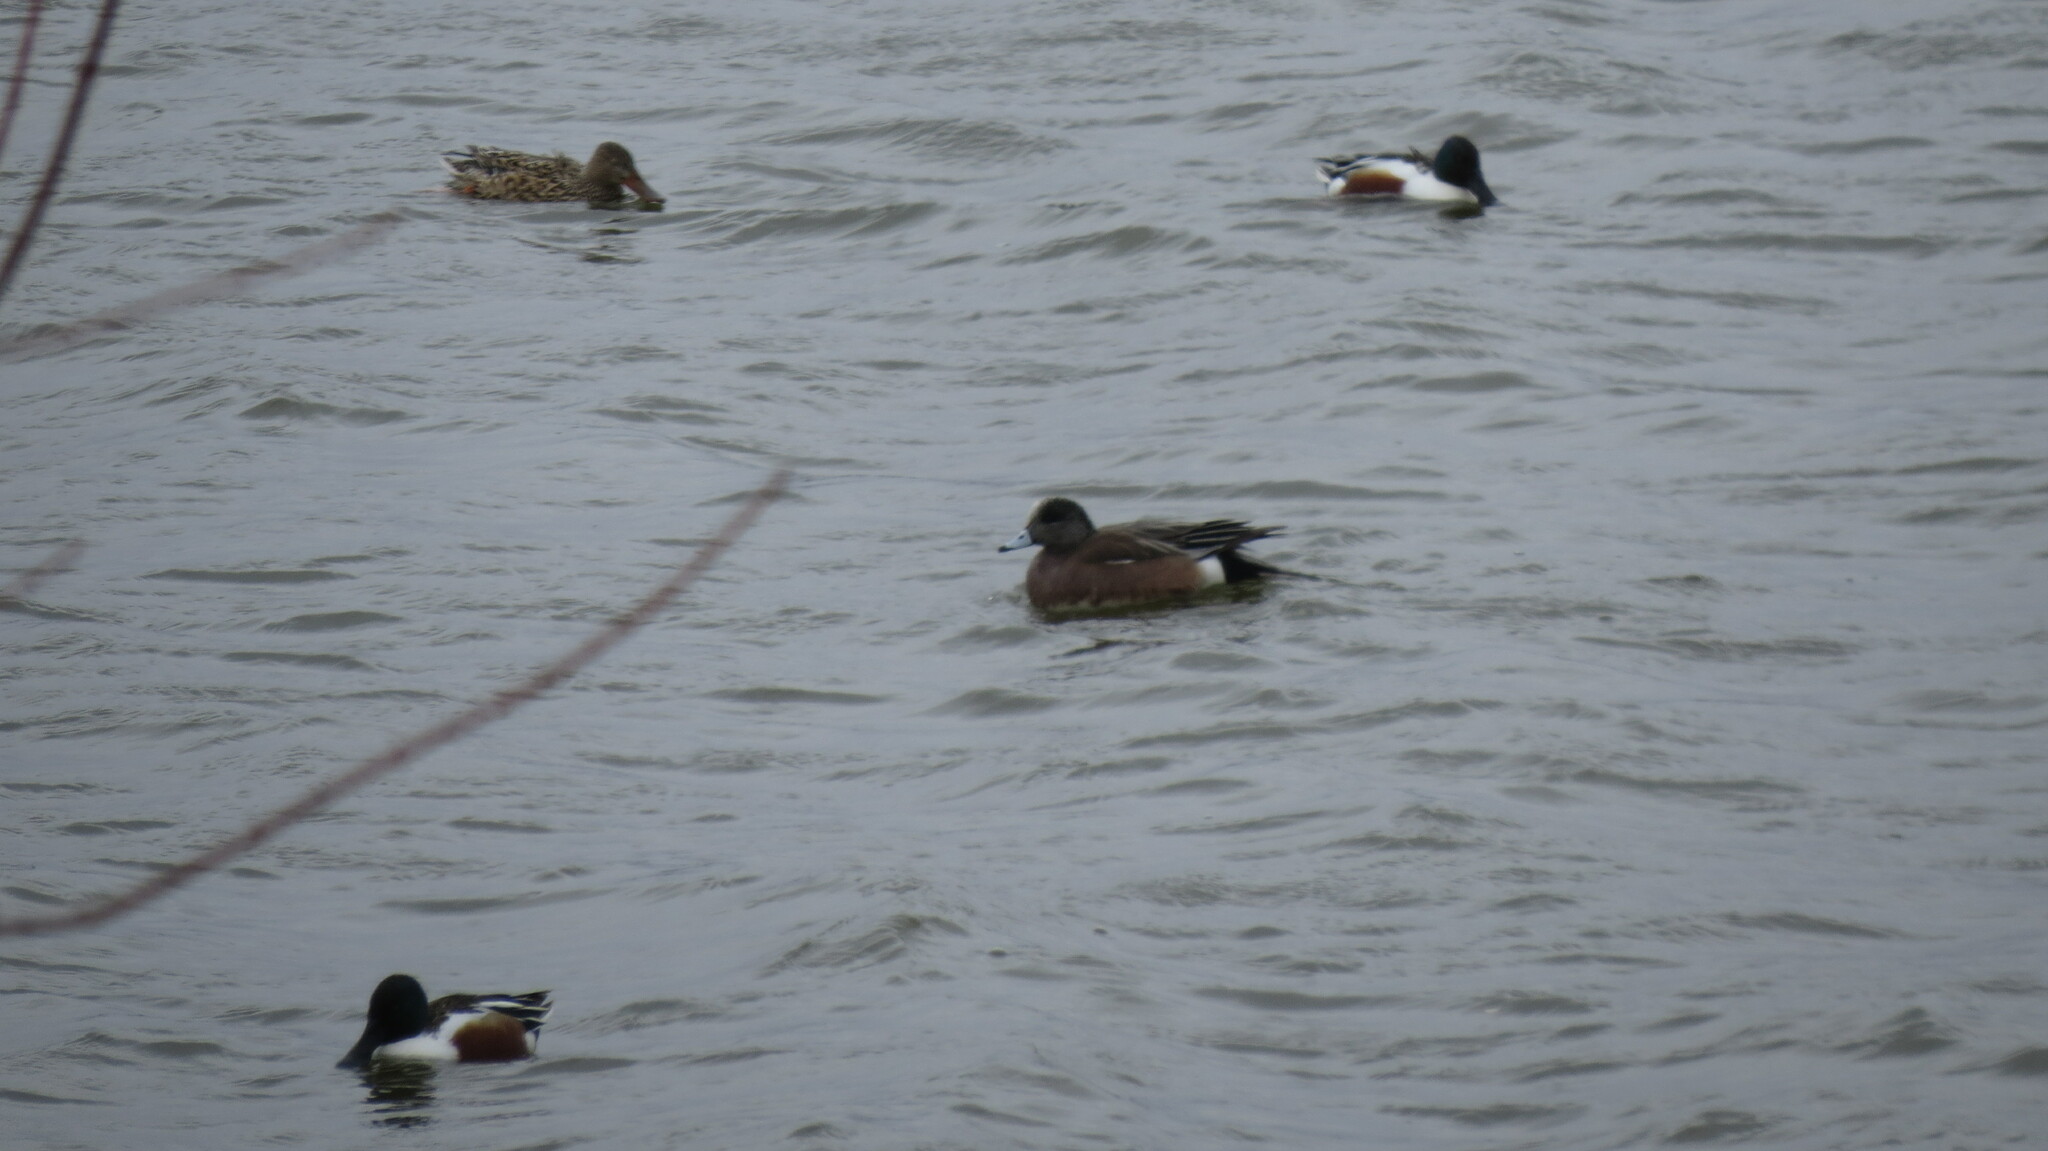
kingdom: Animalia
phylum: Chordata
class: Aves
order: Anseriformes
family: Anatidae
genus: Mareca
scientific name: Mareca americana
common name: American wigeon
